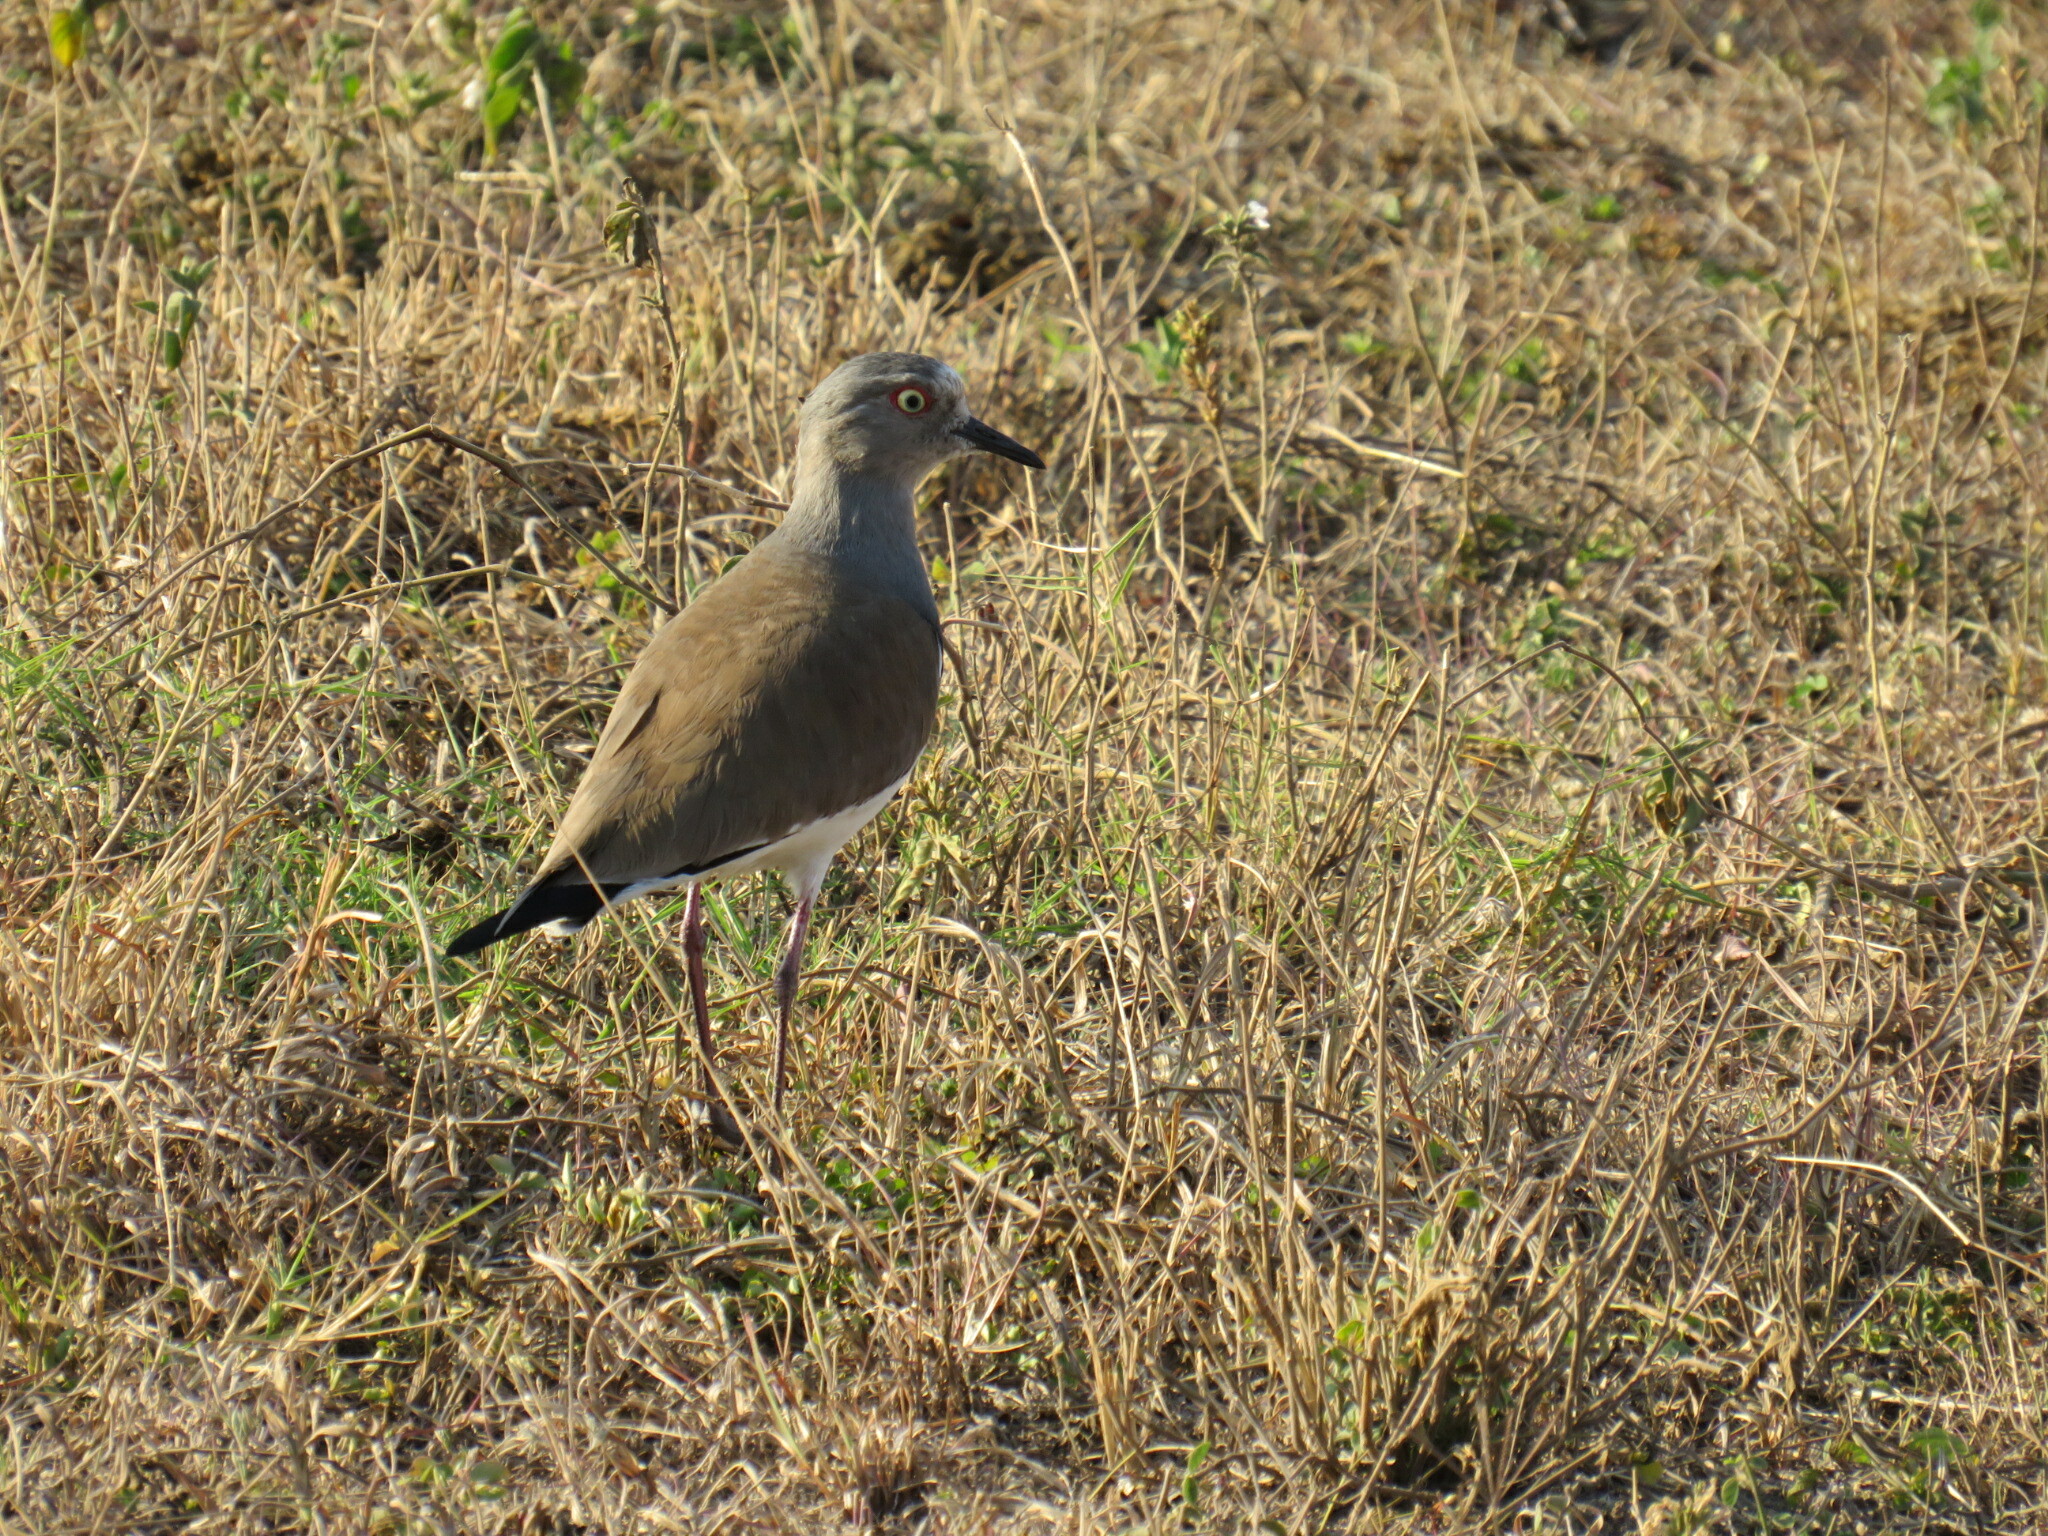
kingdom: Animalia
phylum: Chordata
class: Aves
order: Charadriiformes
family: Charadriidae
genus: Vanellus
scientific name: Vanellus melanopterus
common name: Black-winged lapwing
